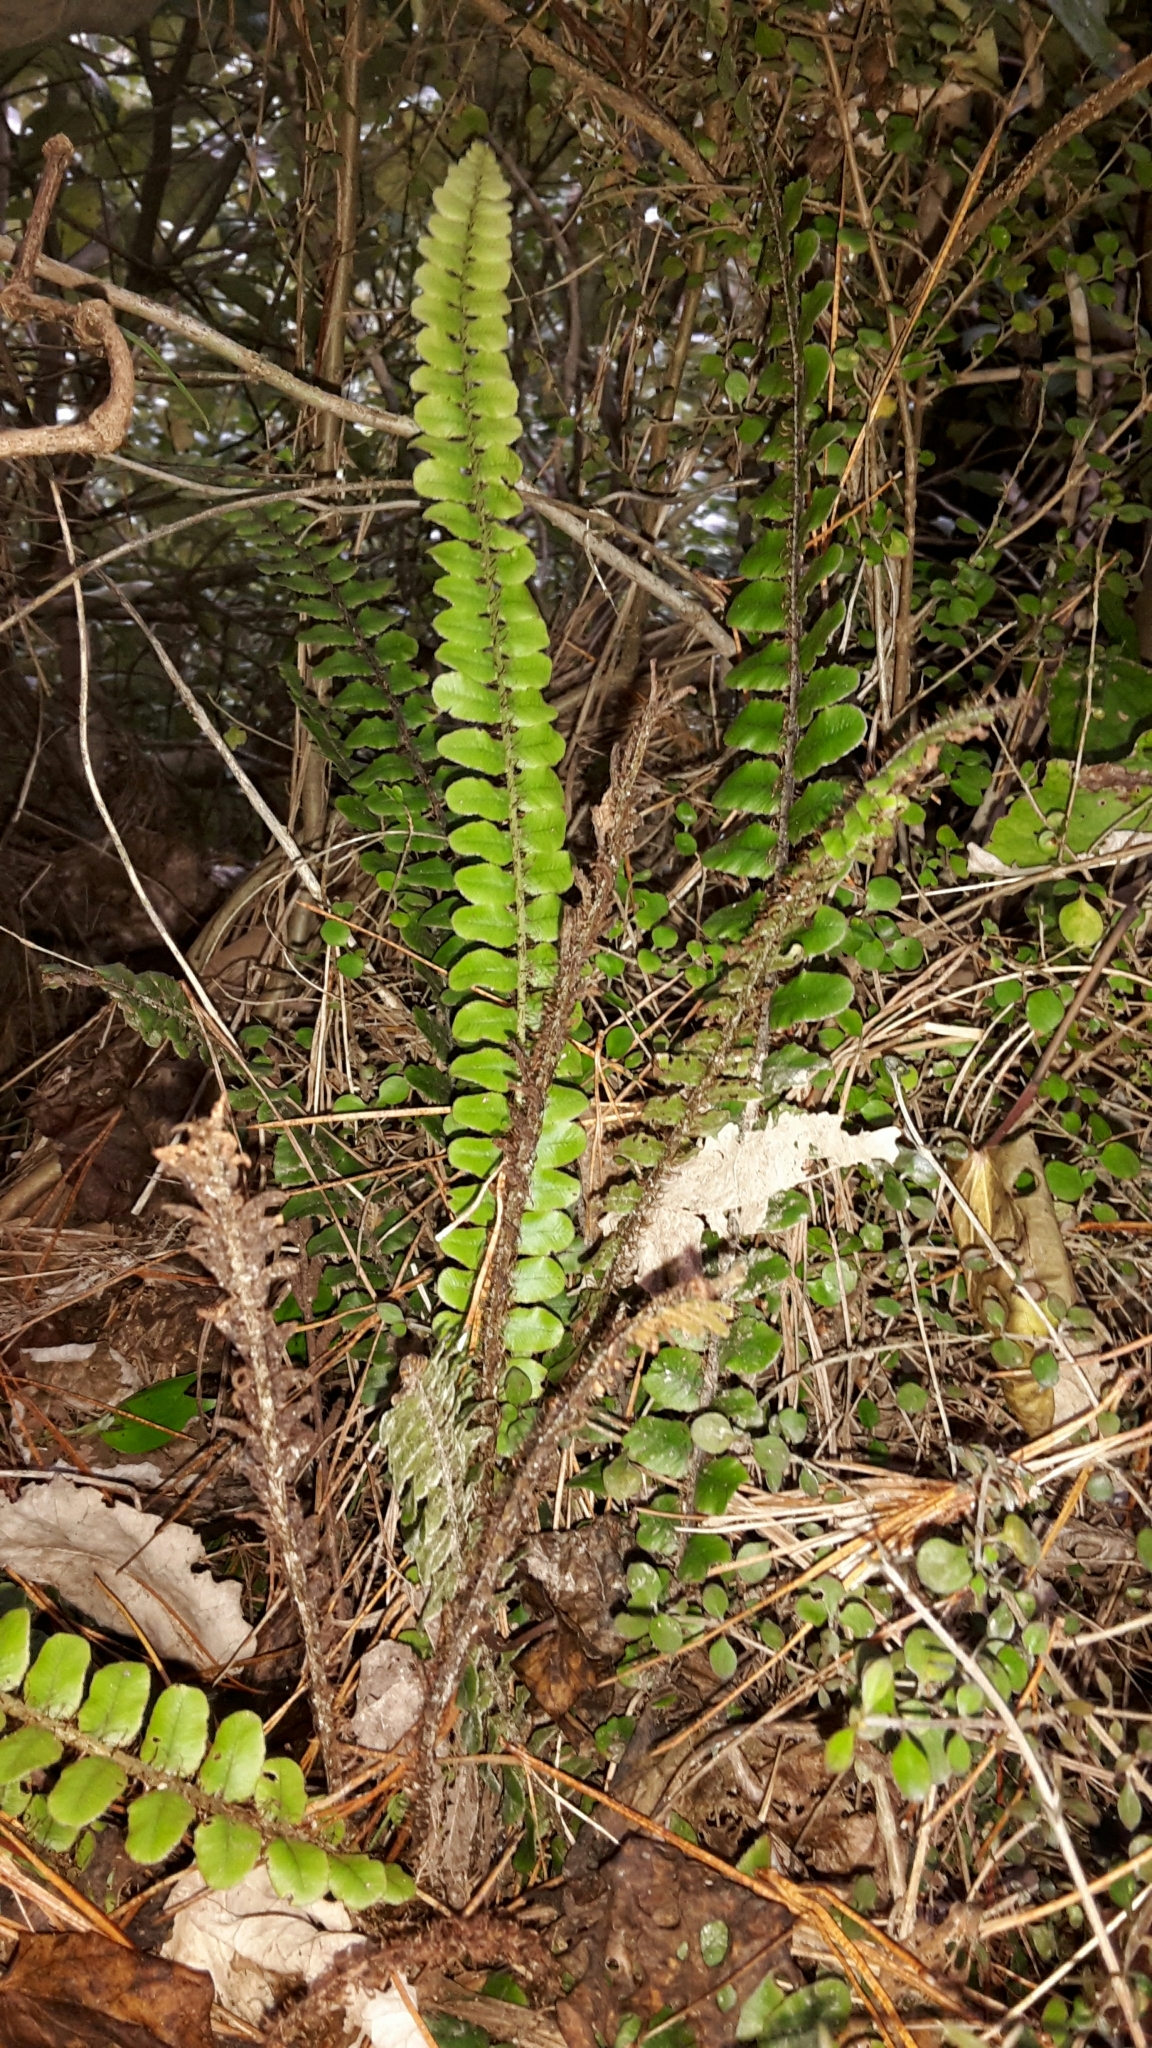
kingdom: Plantae
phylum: Tracheophyta
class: Polypodiopsida
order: Polypodiales
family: Blechnaceae
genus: Cranfillia
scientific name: Cranfillia fluviatilis
